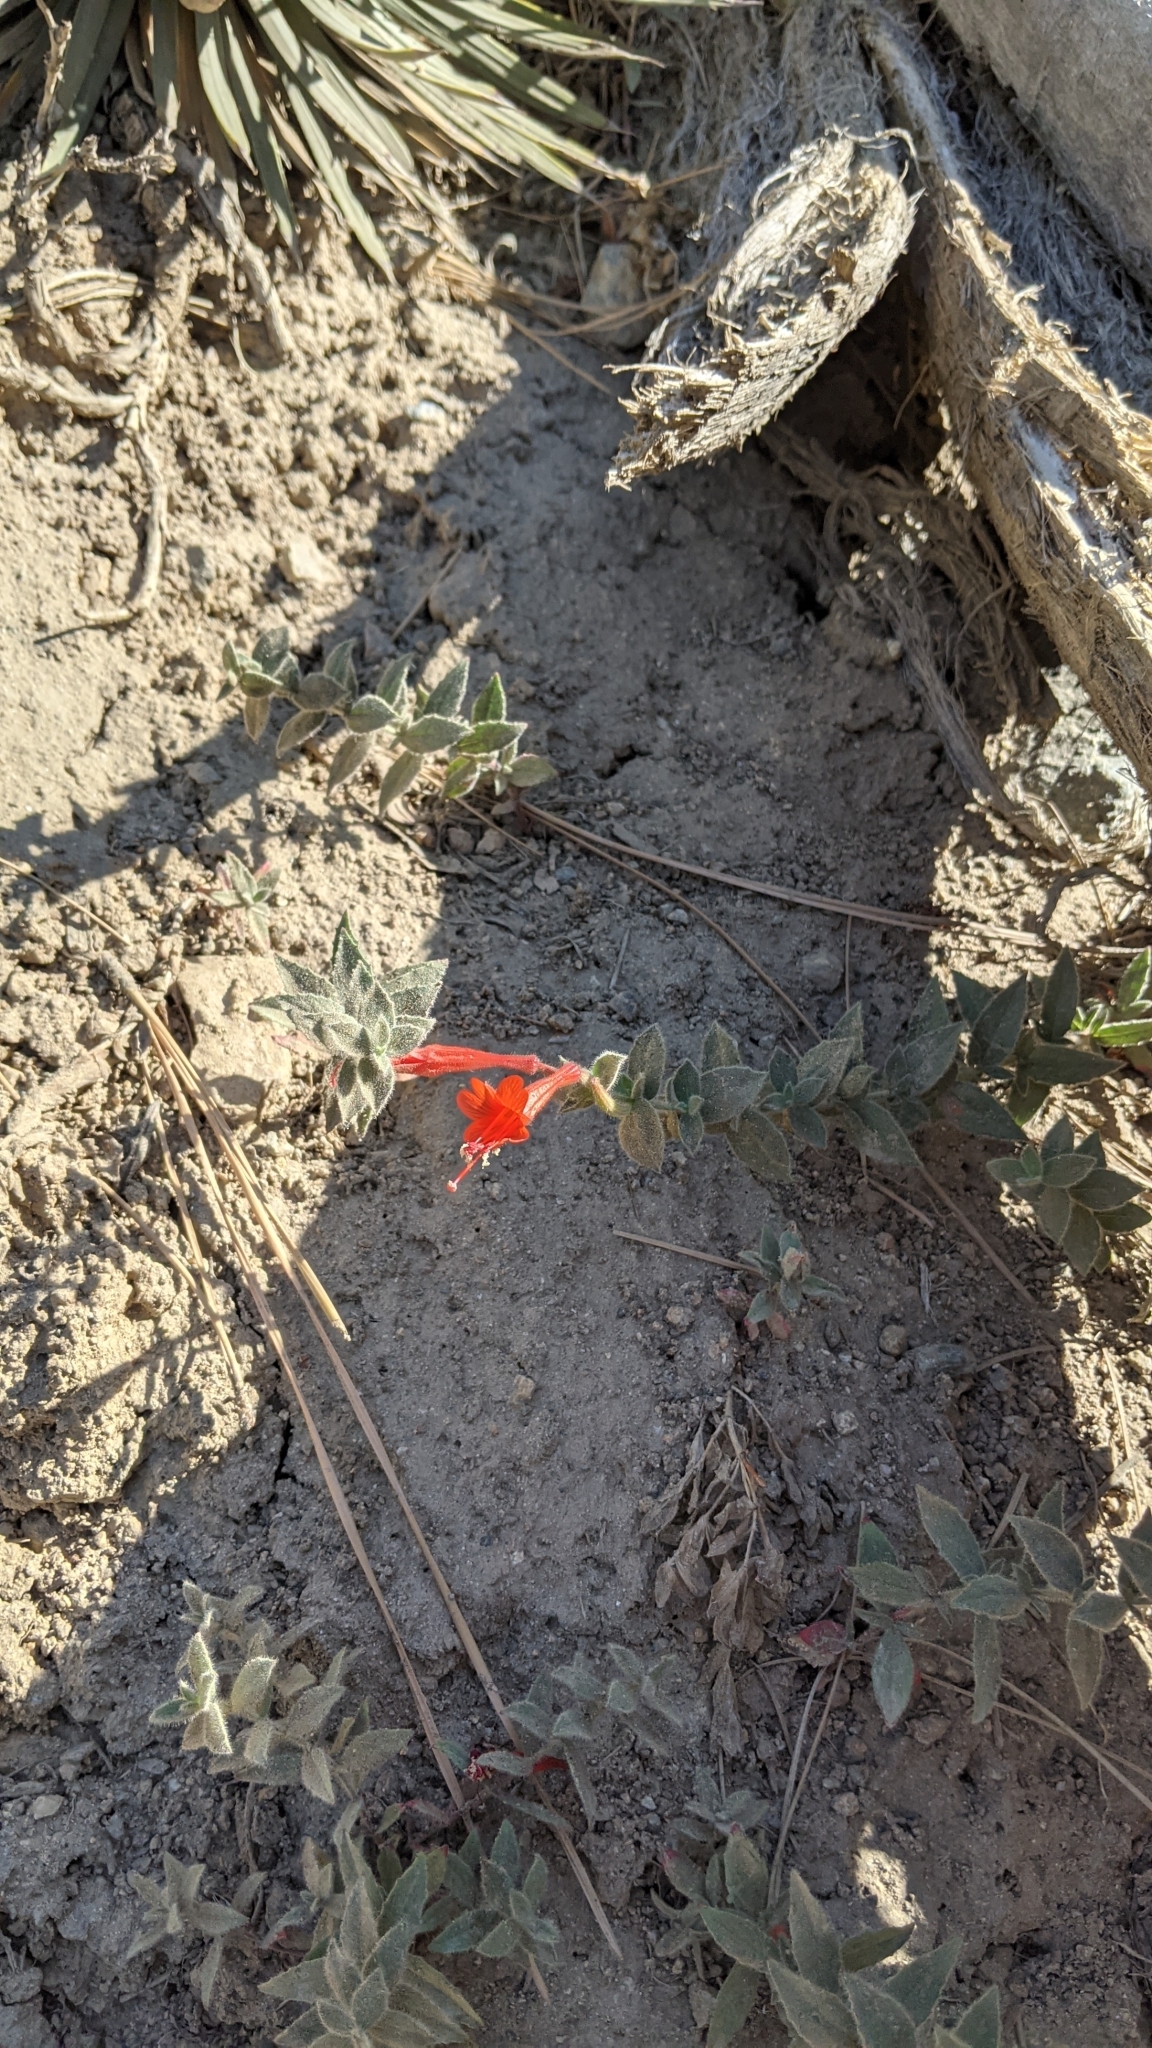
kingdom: Plantae
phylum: Tracheophyta
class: Magnoliopsida
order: Myrtales
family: Onagraceae
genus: Epilobium
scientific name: Epilobium canum
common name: California-fuchsia
